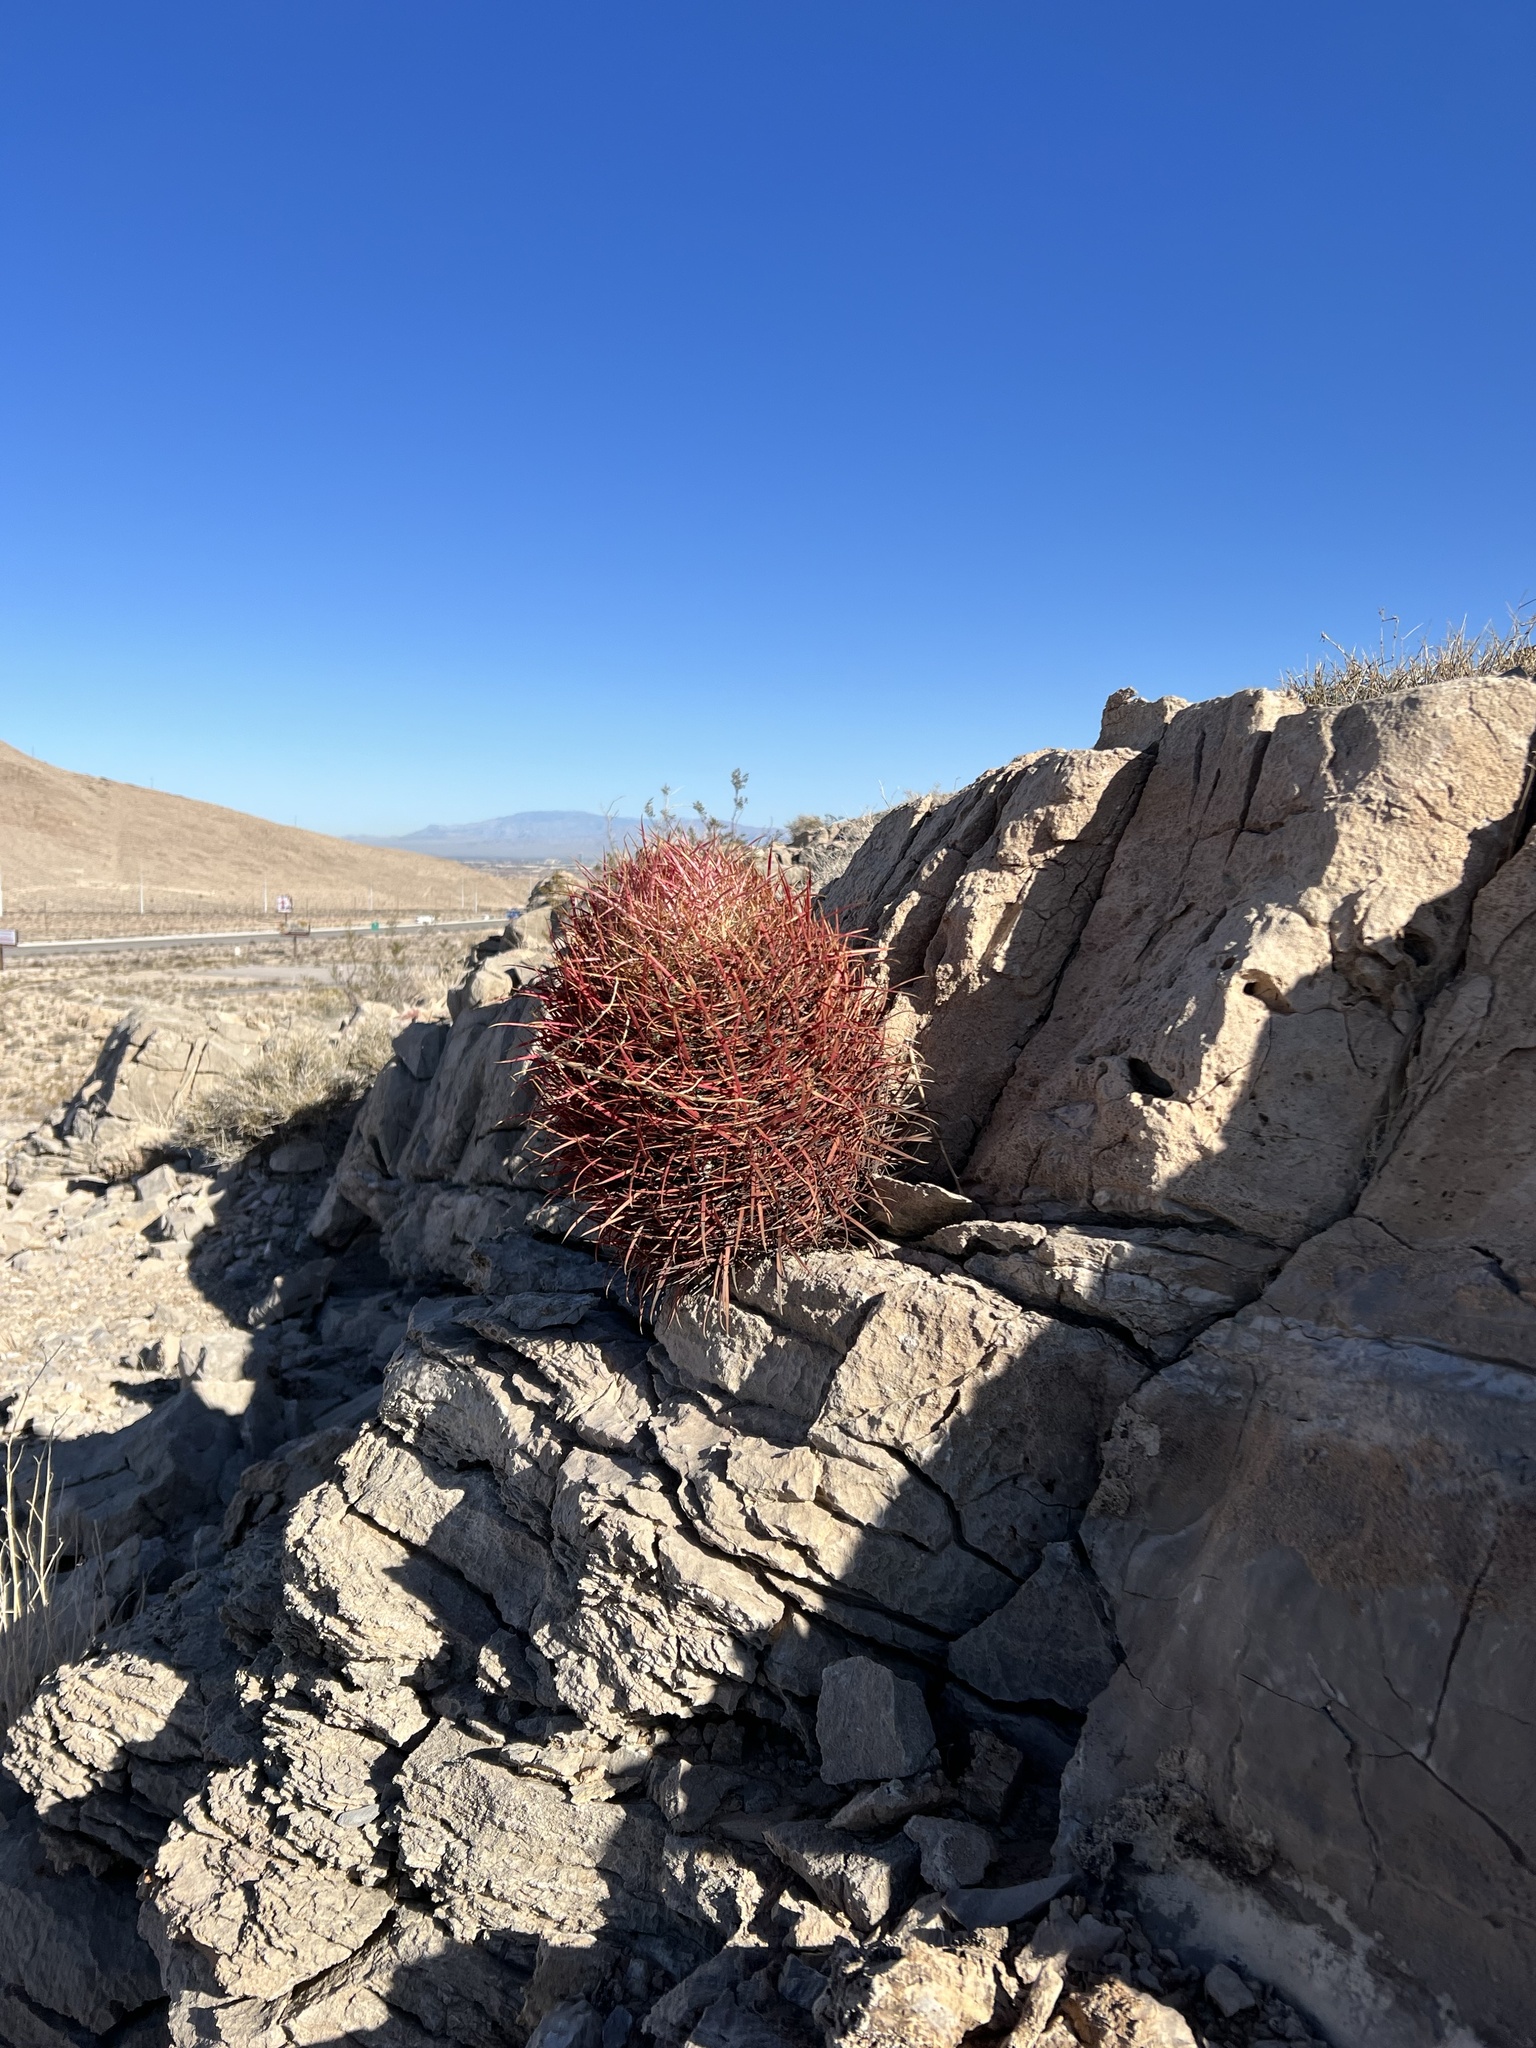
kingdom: Plantae
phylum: Tracheophyta
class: Magnoliopsida
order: Caryophyllales
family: Cactaceae
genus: Ferocactus
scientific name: Ferocactus cylindraceus
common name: California barrel cactus
